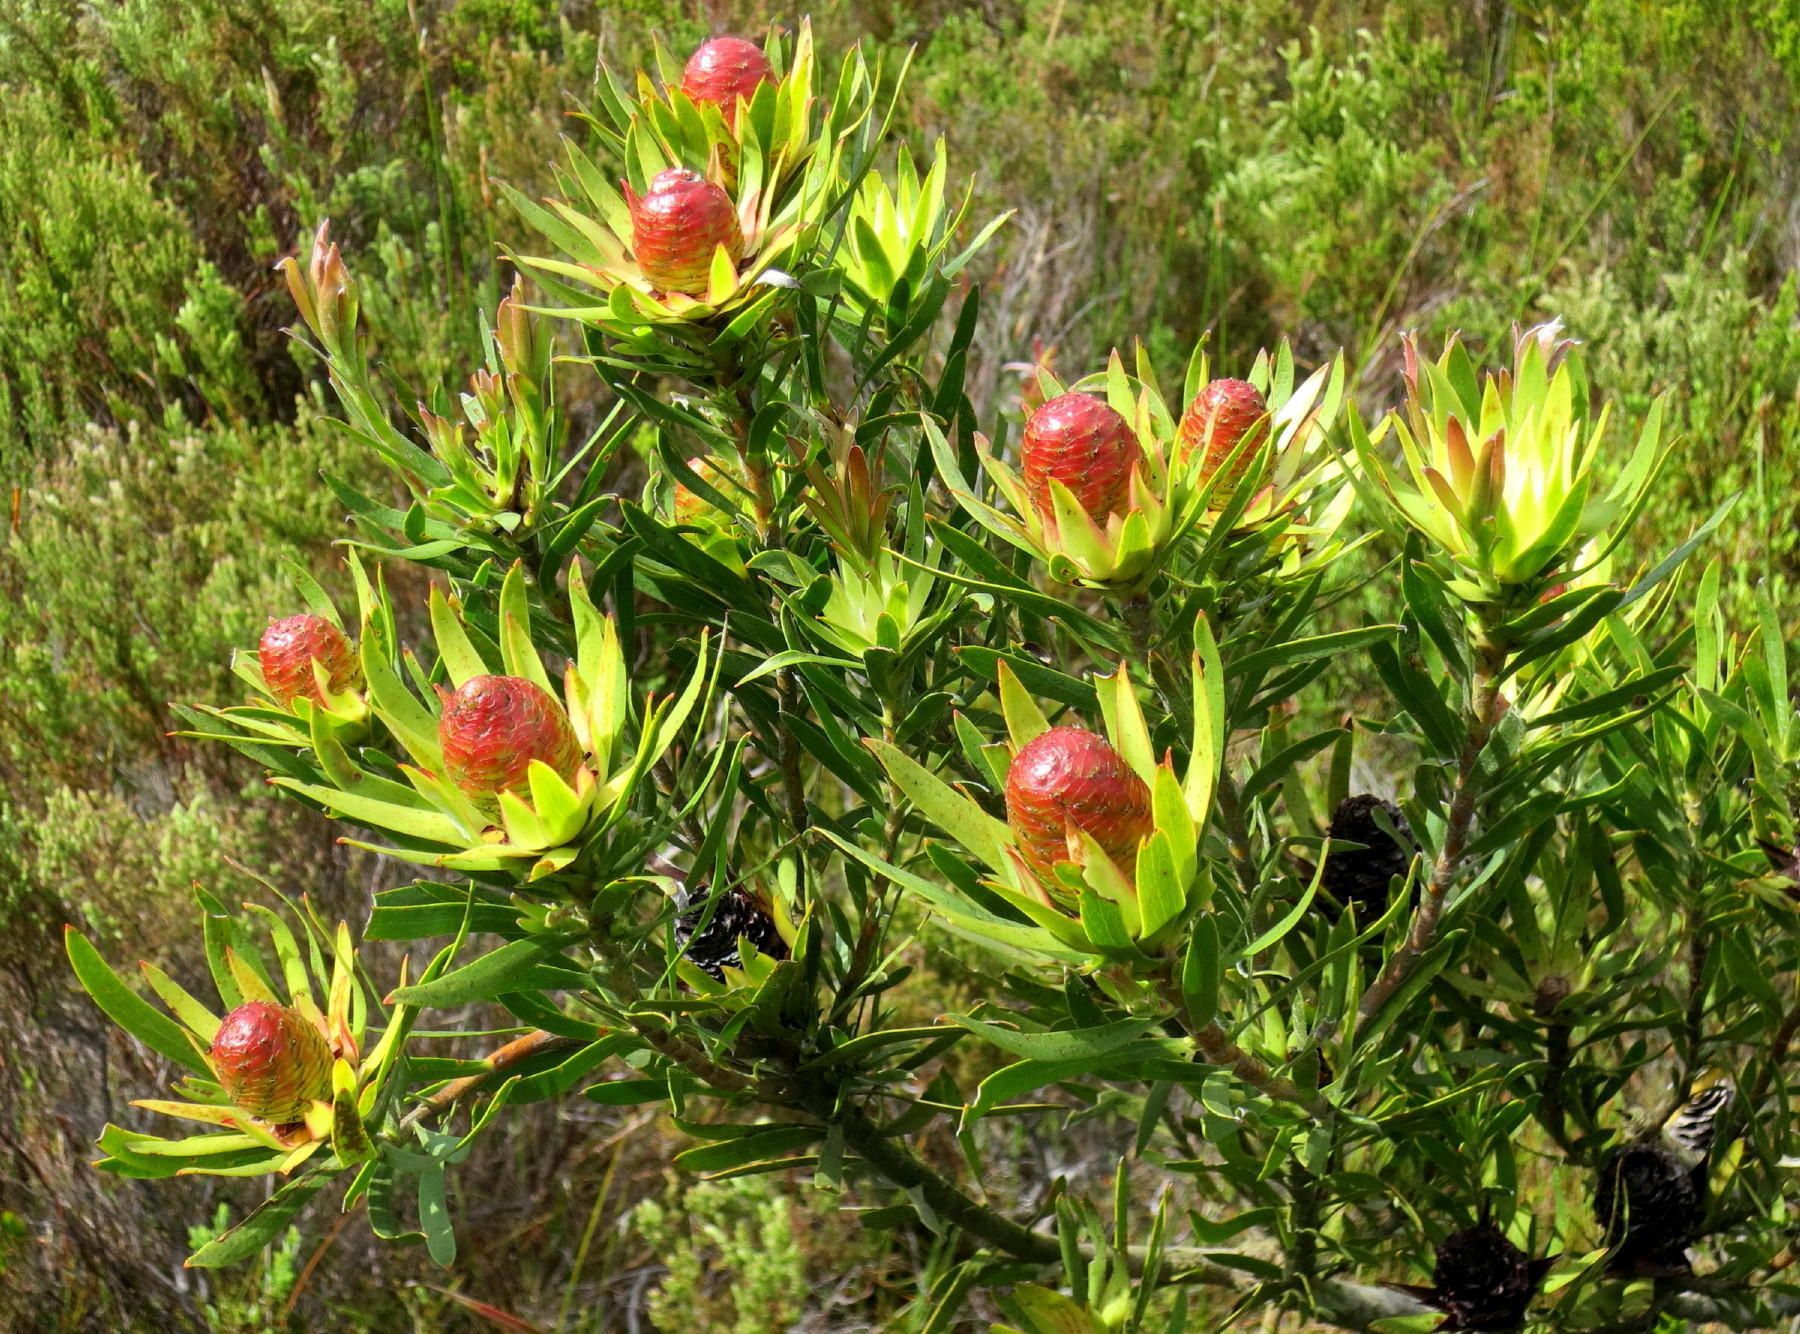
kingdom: Plantae
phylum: Tracheophyta
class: Magnoliopsida
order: Proteales
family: Proteaceae
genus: Leucadendron
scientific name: Leucadendron spissifolium
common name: Spear-leaf conebush
